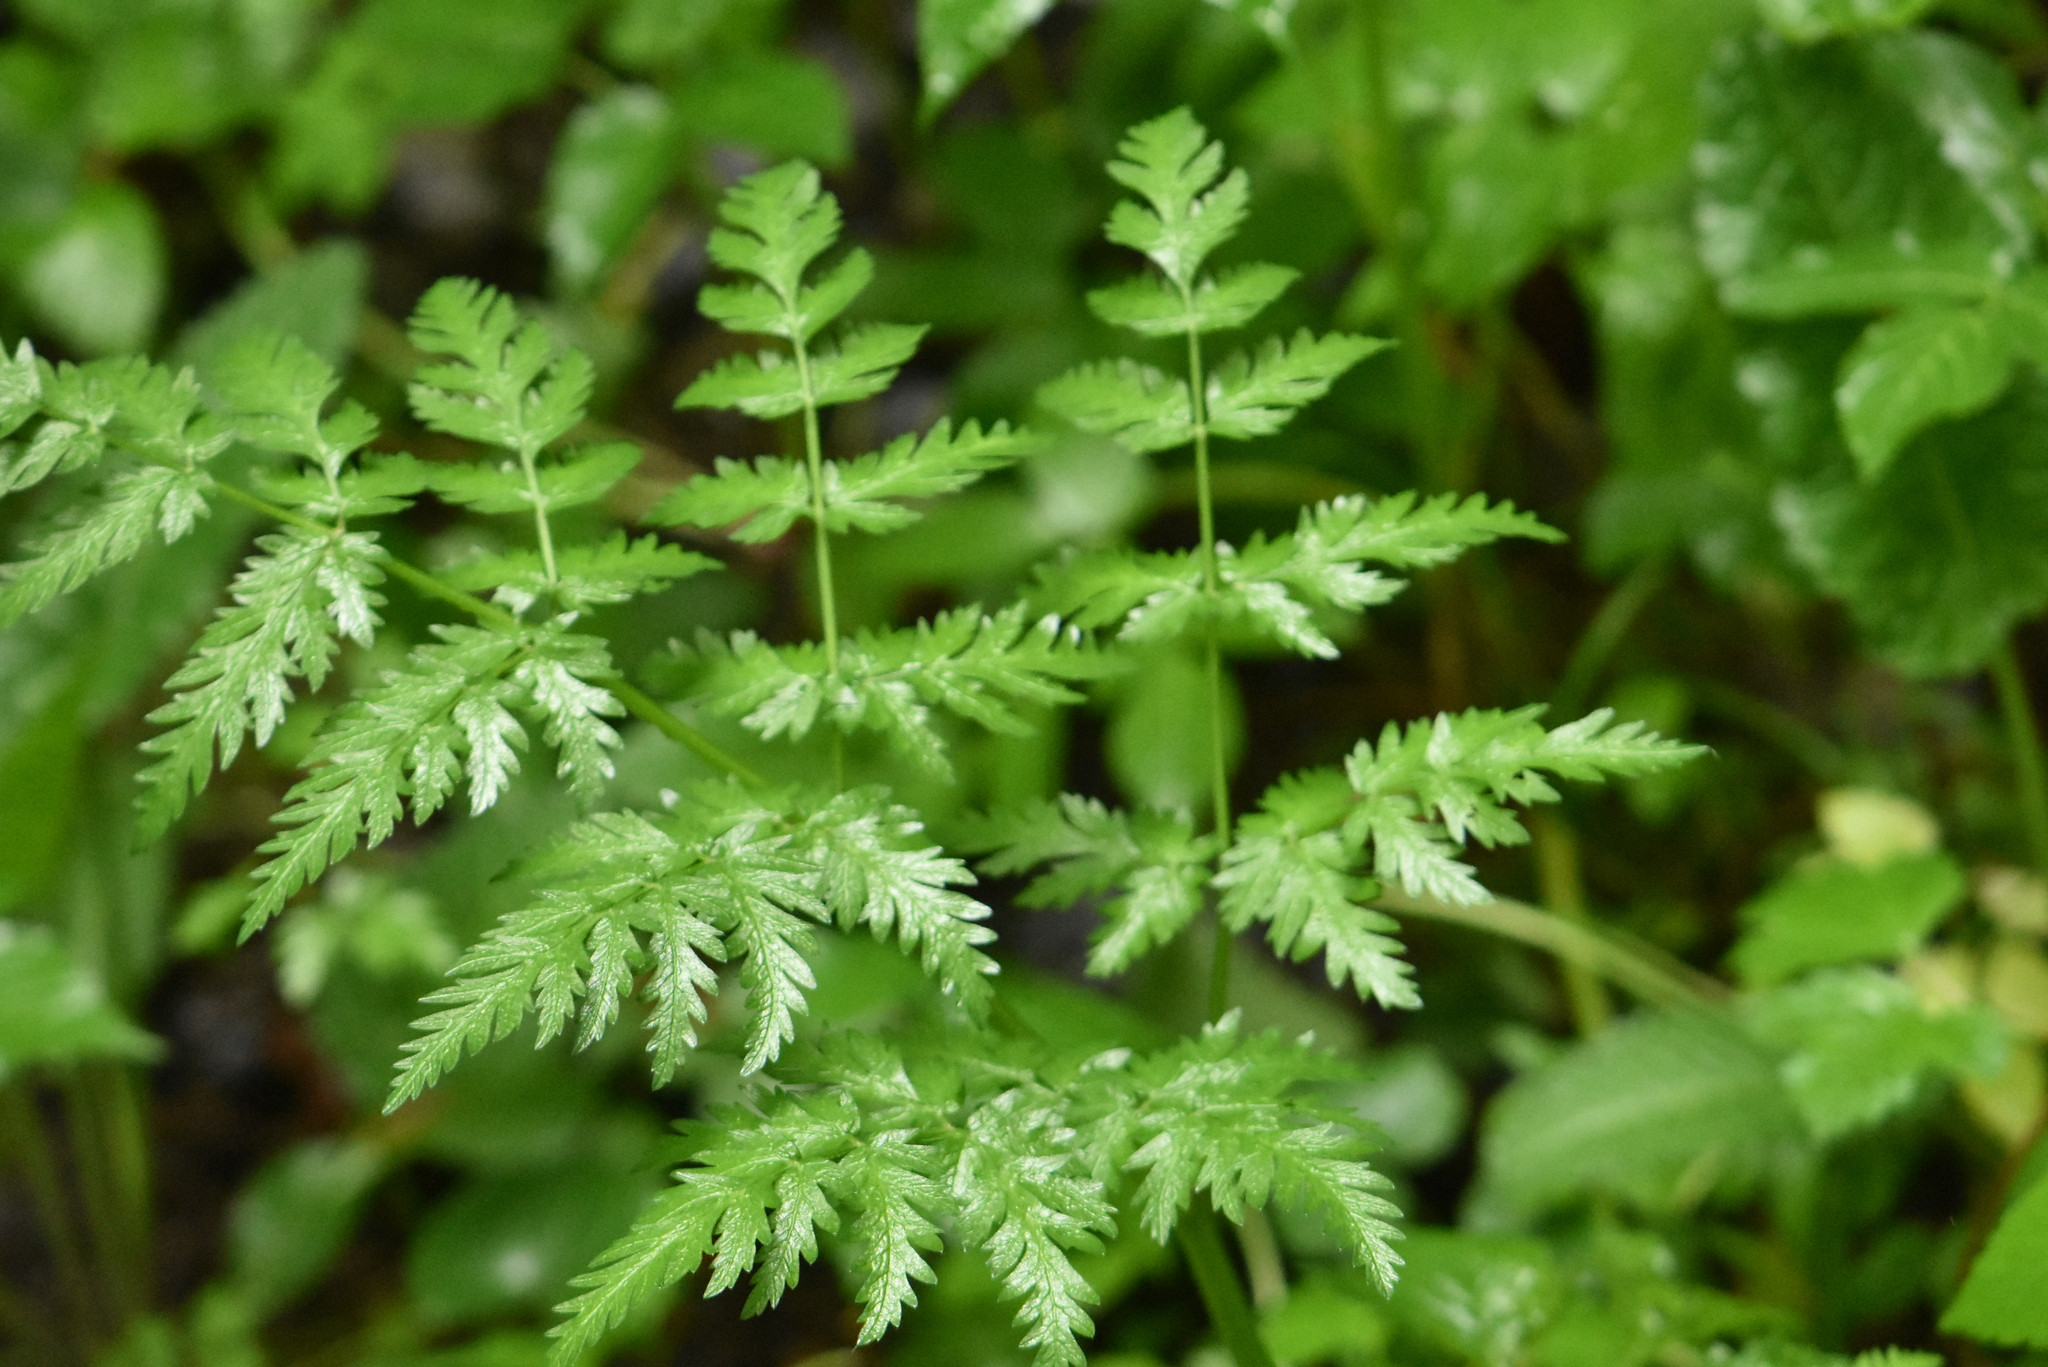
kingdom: Plantae
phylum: Tracheophyta
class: Magnoliopsida
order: Apiales
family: Apiaceae
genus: Anthriscus
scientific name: Anthriscus sylvestris
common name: Cow parsley
